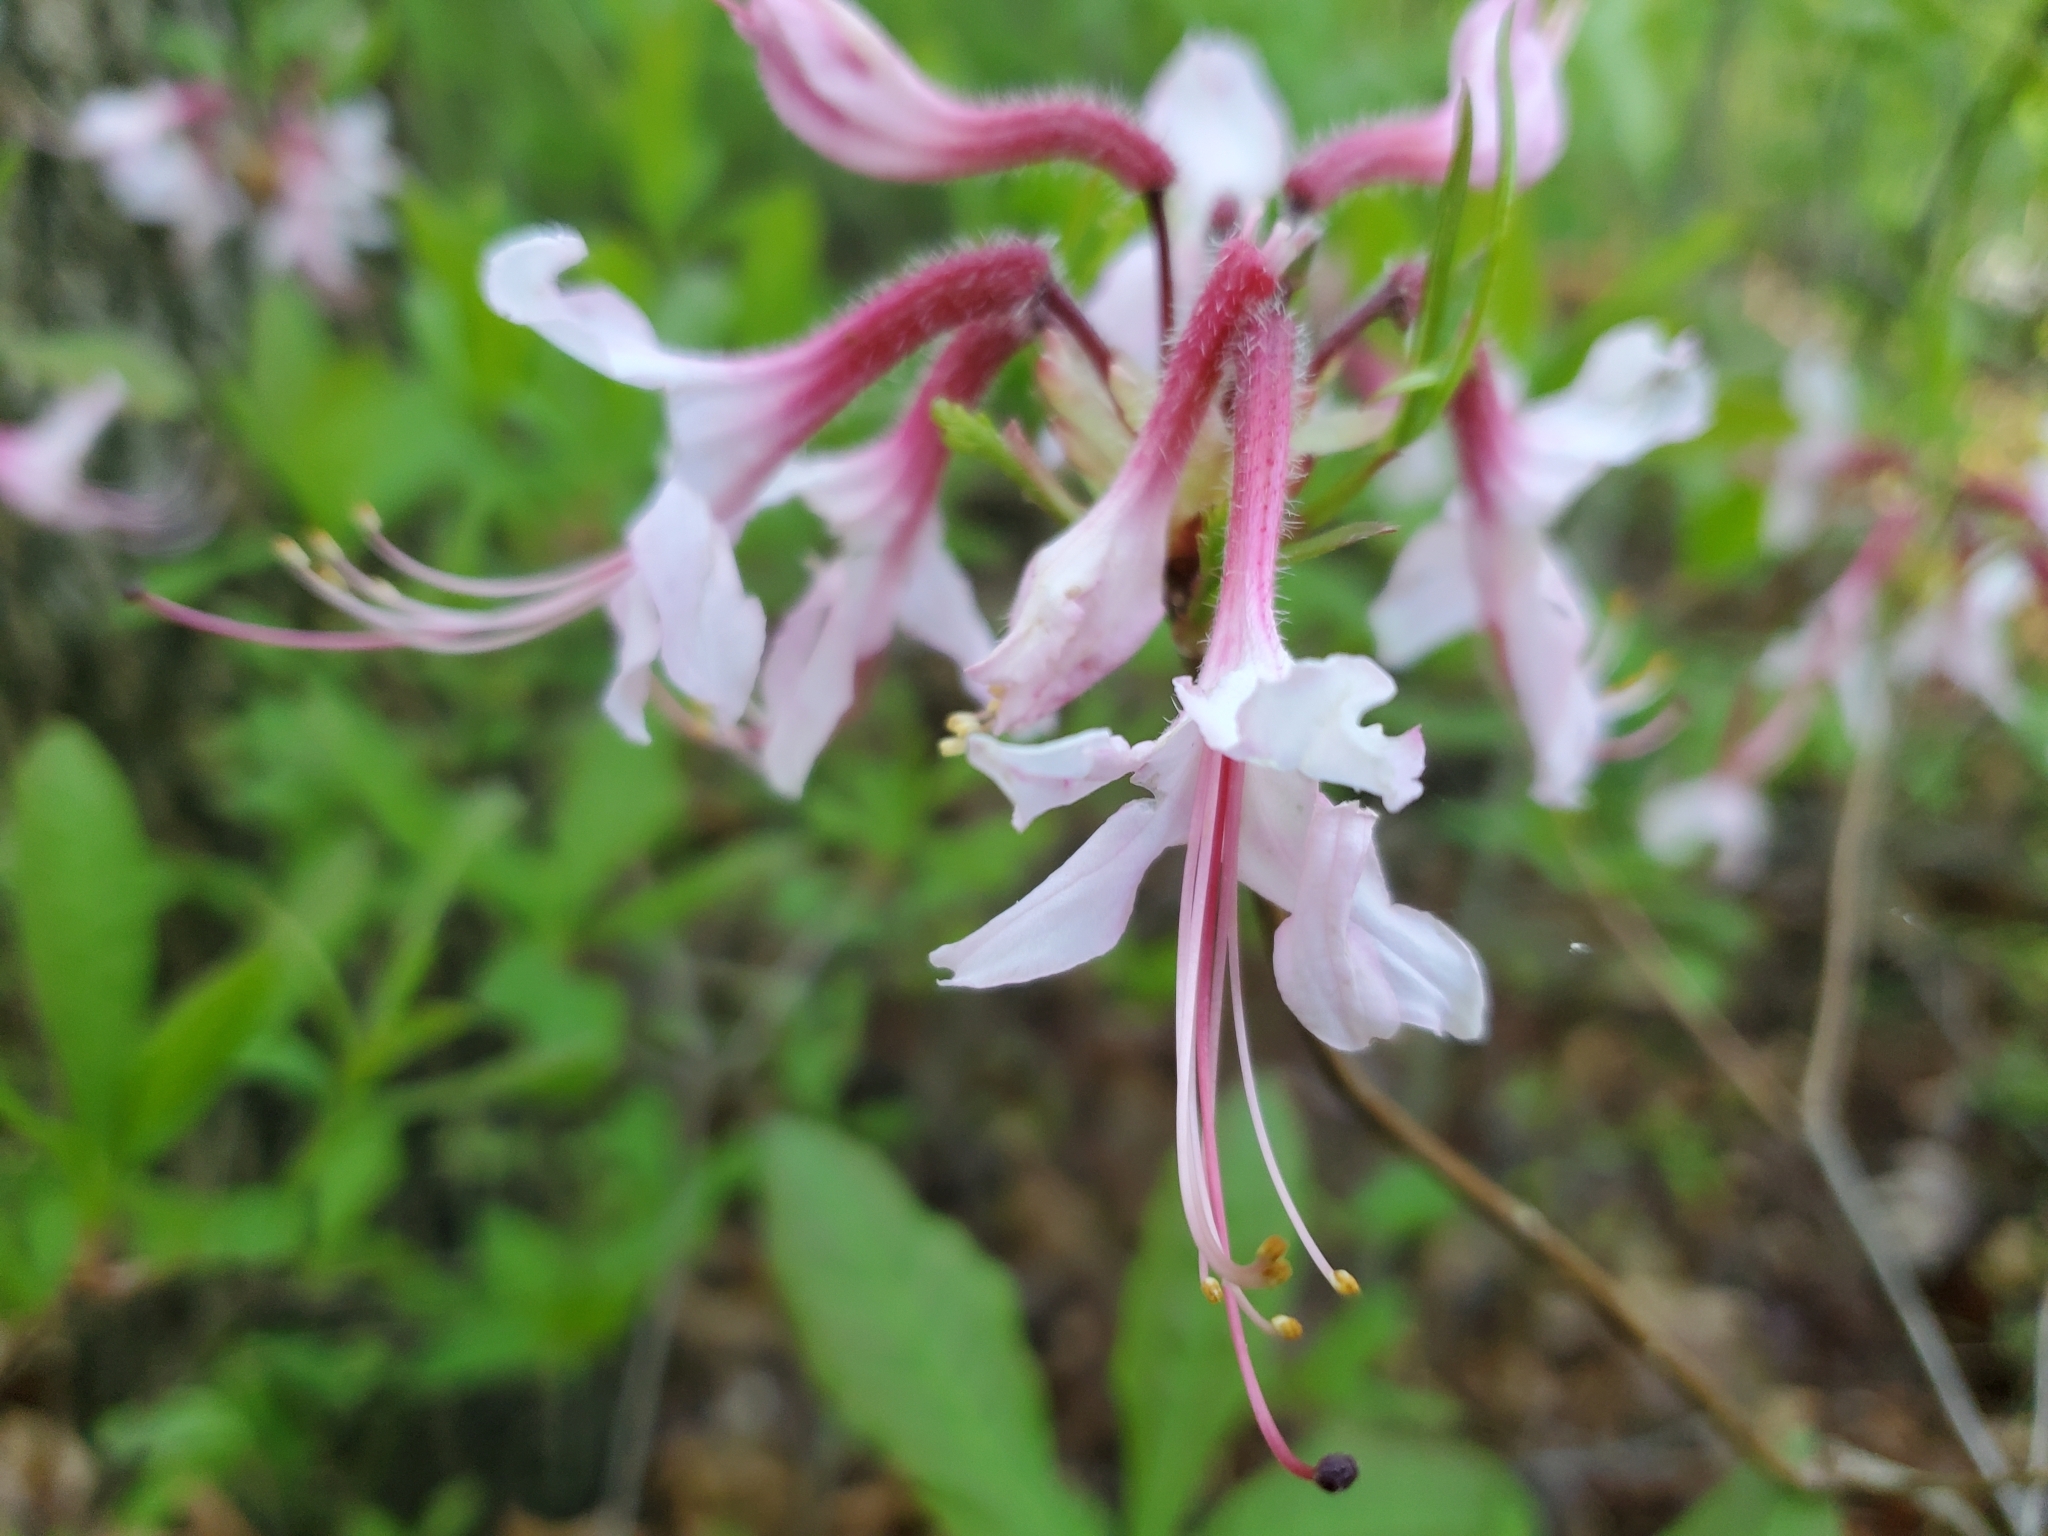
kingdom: Plantae
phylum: Tracheophyta
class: Magnoliopsida
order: Ericales
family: Ericaceae
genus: Rhododendron
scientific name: Rhododendron periclymenoides
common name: Election-pink
